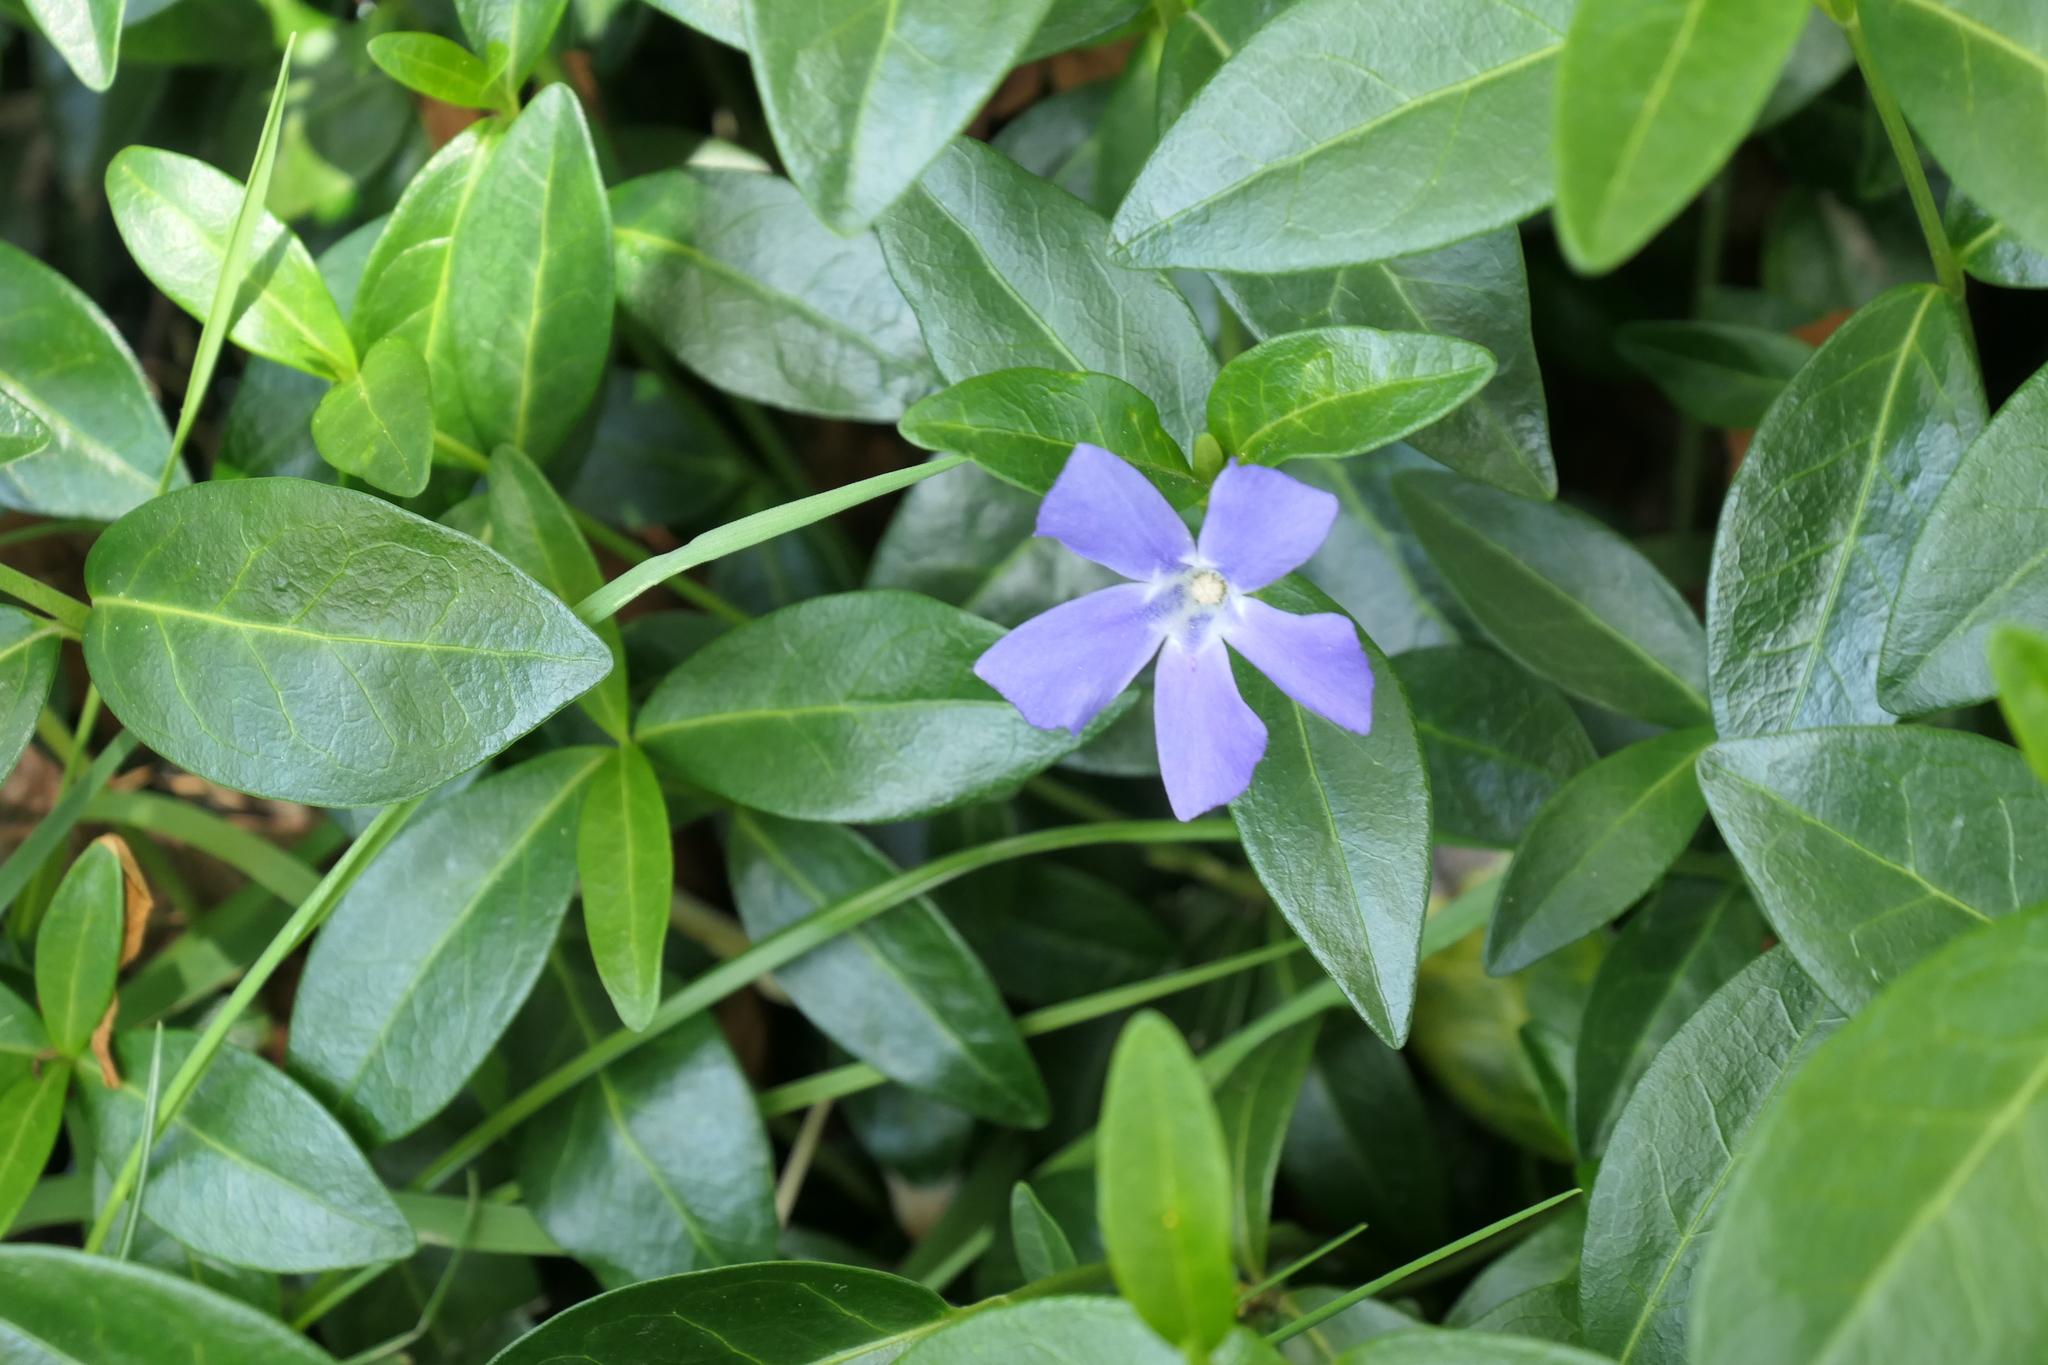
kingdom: Plantae
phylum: Tracheophyta
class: Magnoliopsida
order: Gentianales
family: Apocynaceae
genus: Vinca
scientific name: Vinca minor
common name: Lesser periwinkle
